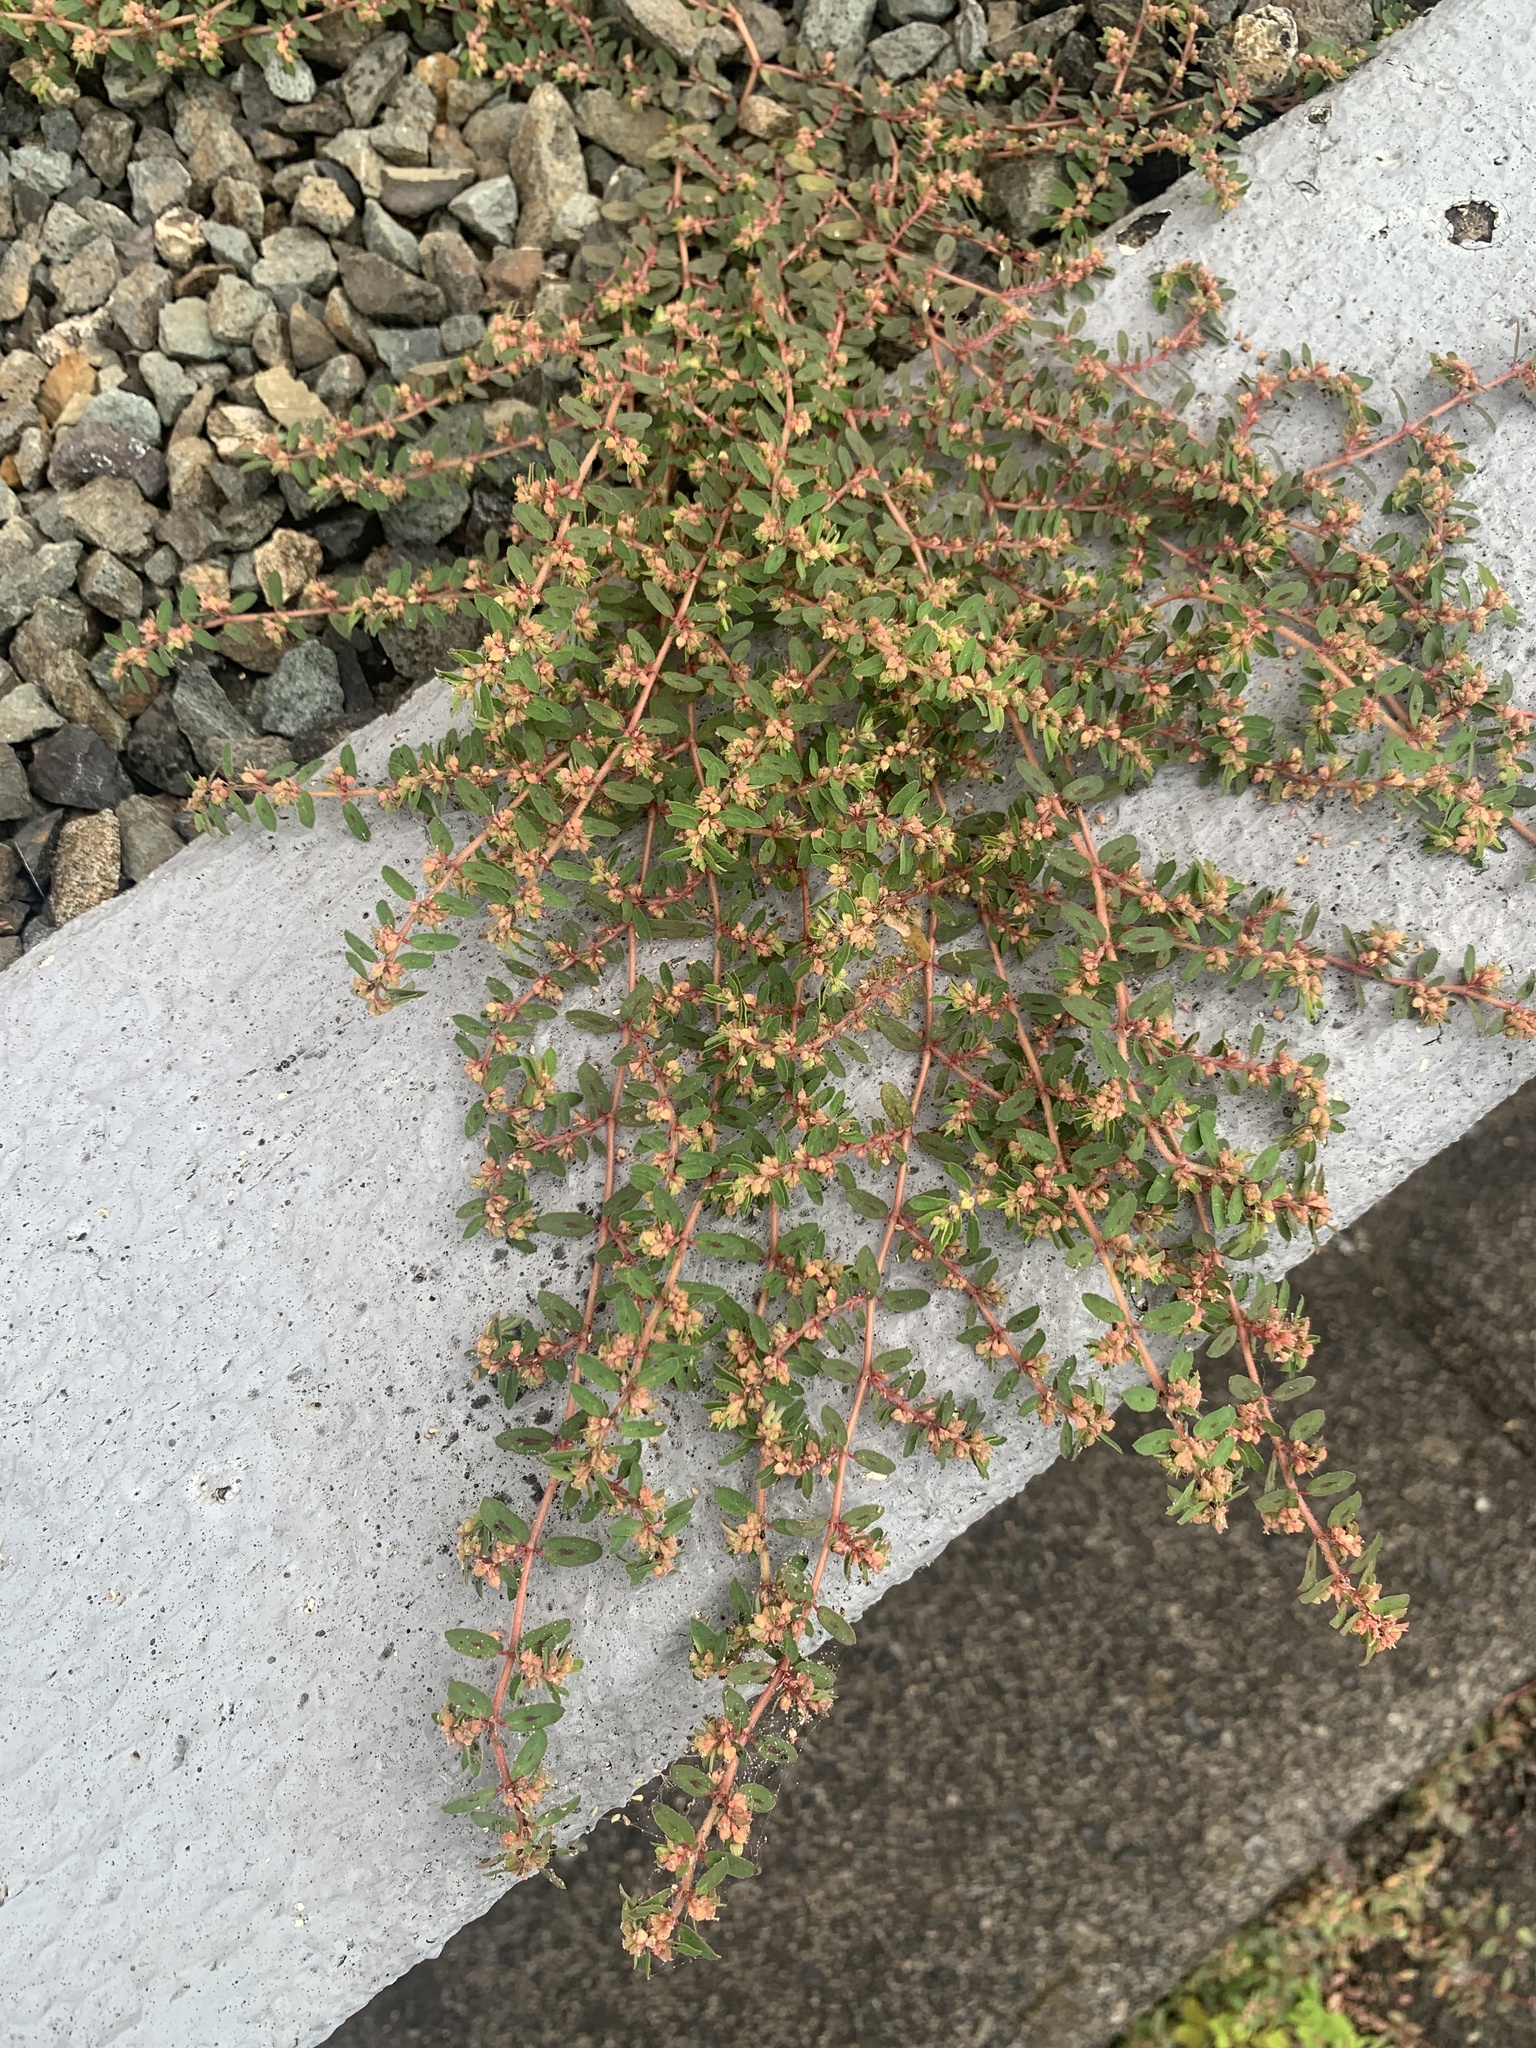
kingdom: Plantae
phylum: Tracheophyta
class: Magnoliopsida
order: Malpighiales
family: Euphorbiaceae
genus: Euphorbia
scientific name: Euphorbia maculata
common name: Spotted spurge
